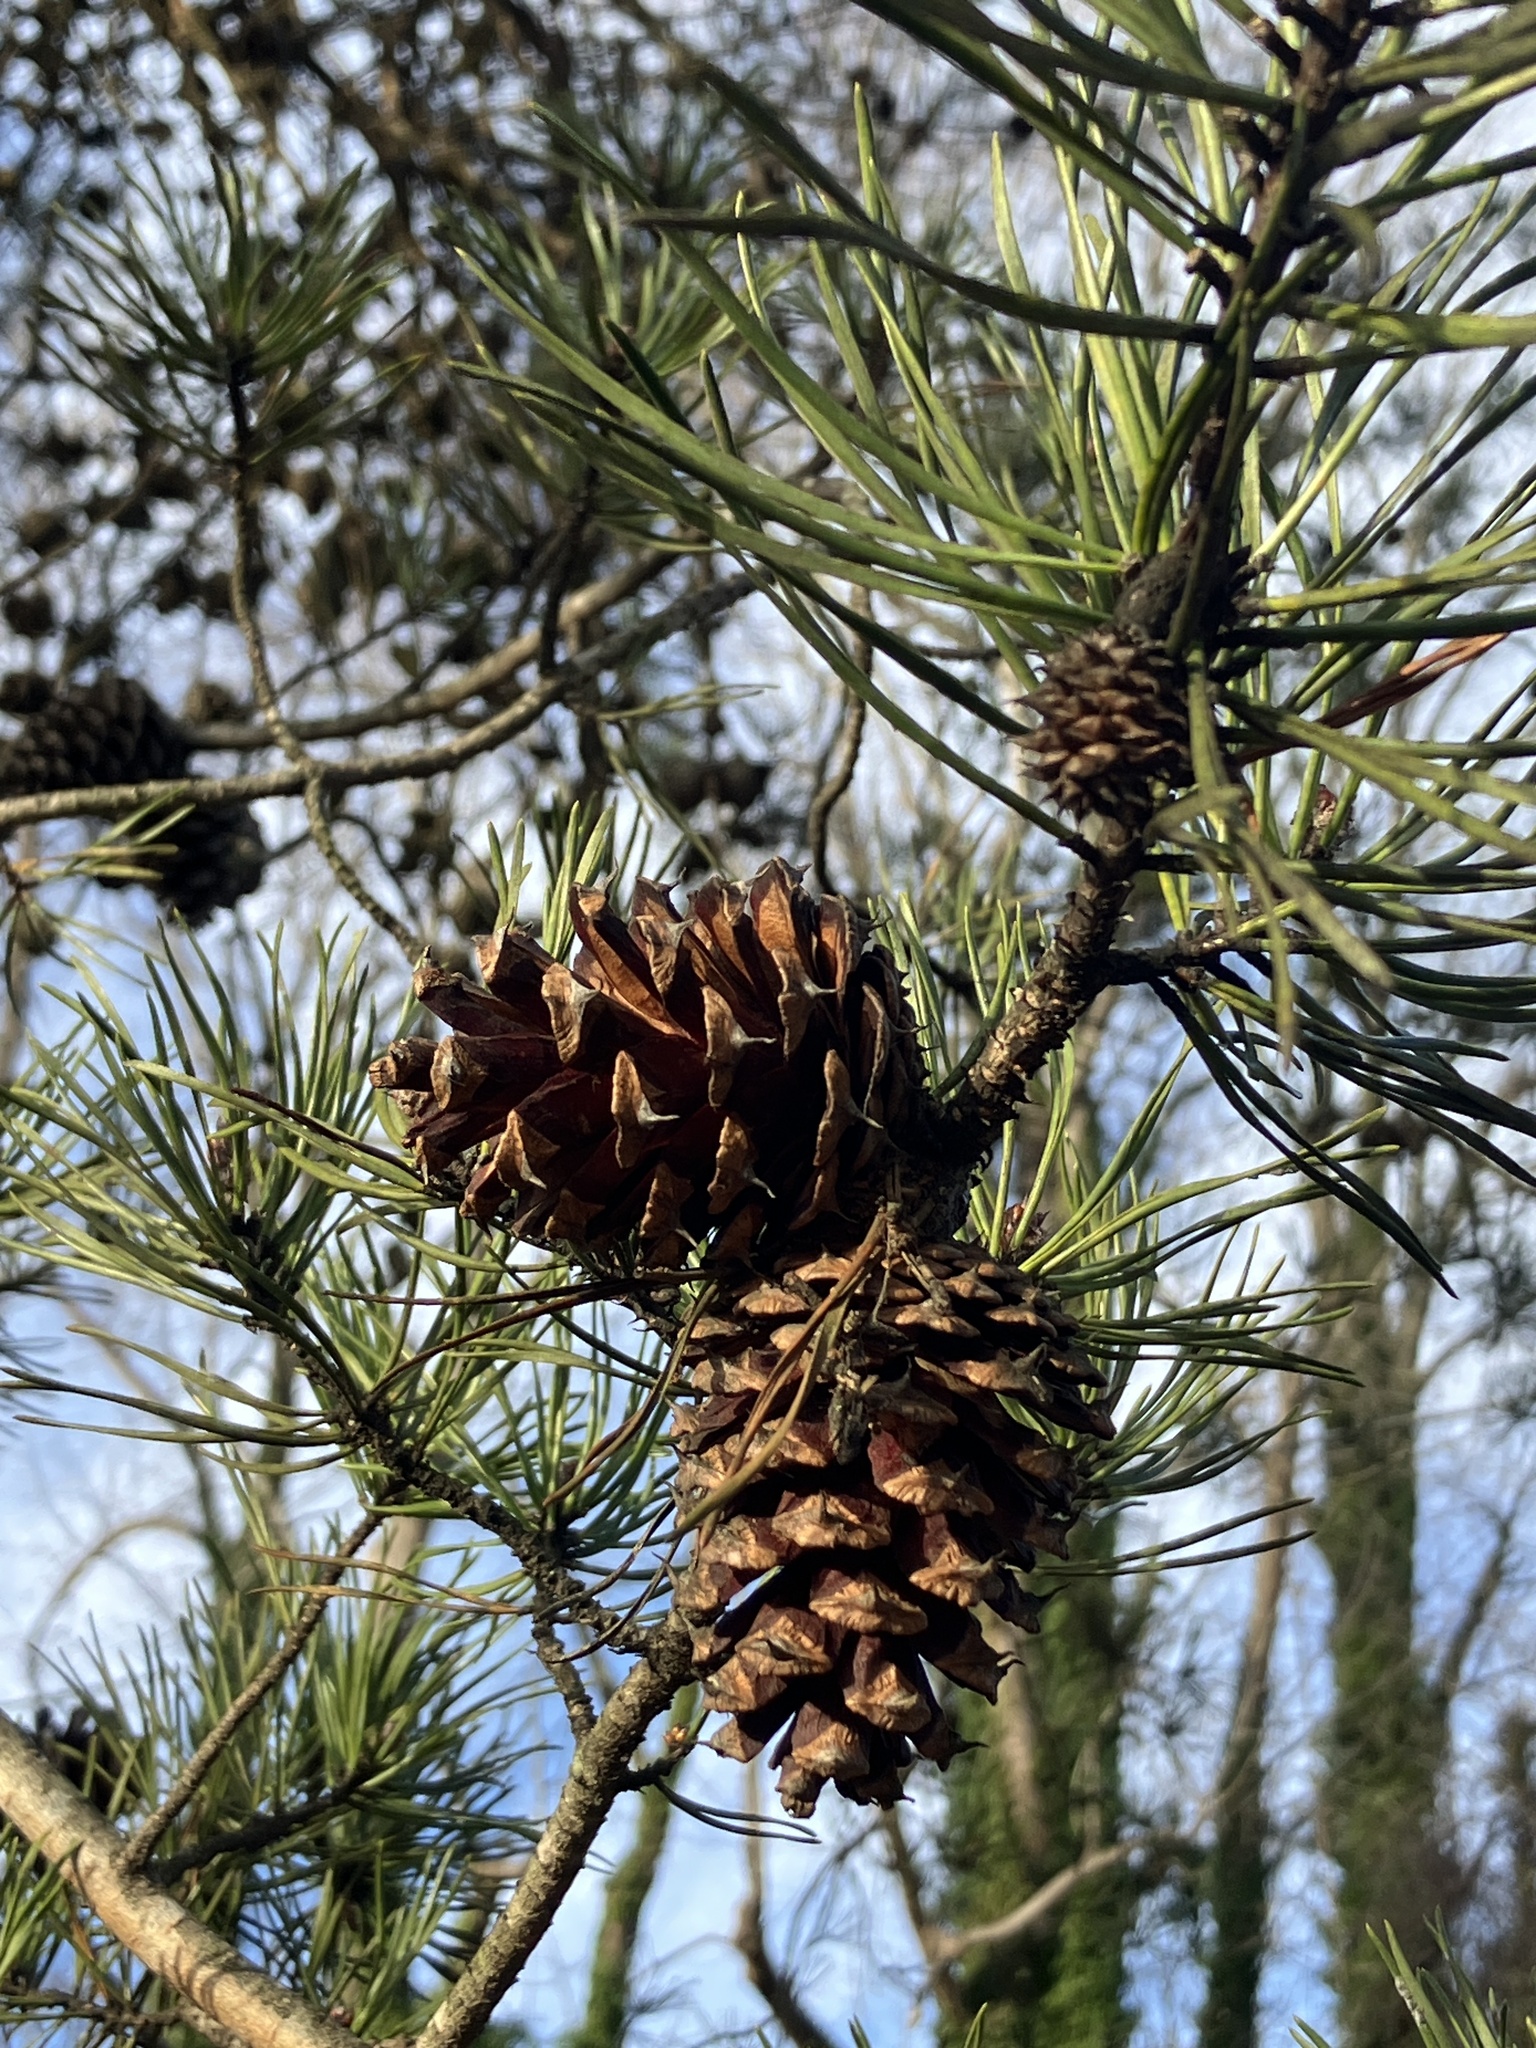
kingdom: Plantae
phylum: Tracheophyta
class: Pinopsida
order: Pinales
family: Pinaceae
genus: Pinus
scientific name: Pinus virginiana
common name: Scrub pine
